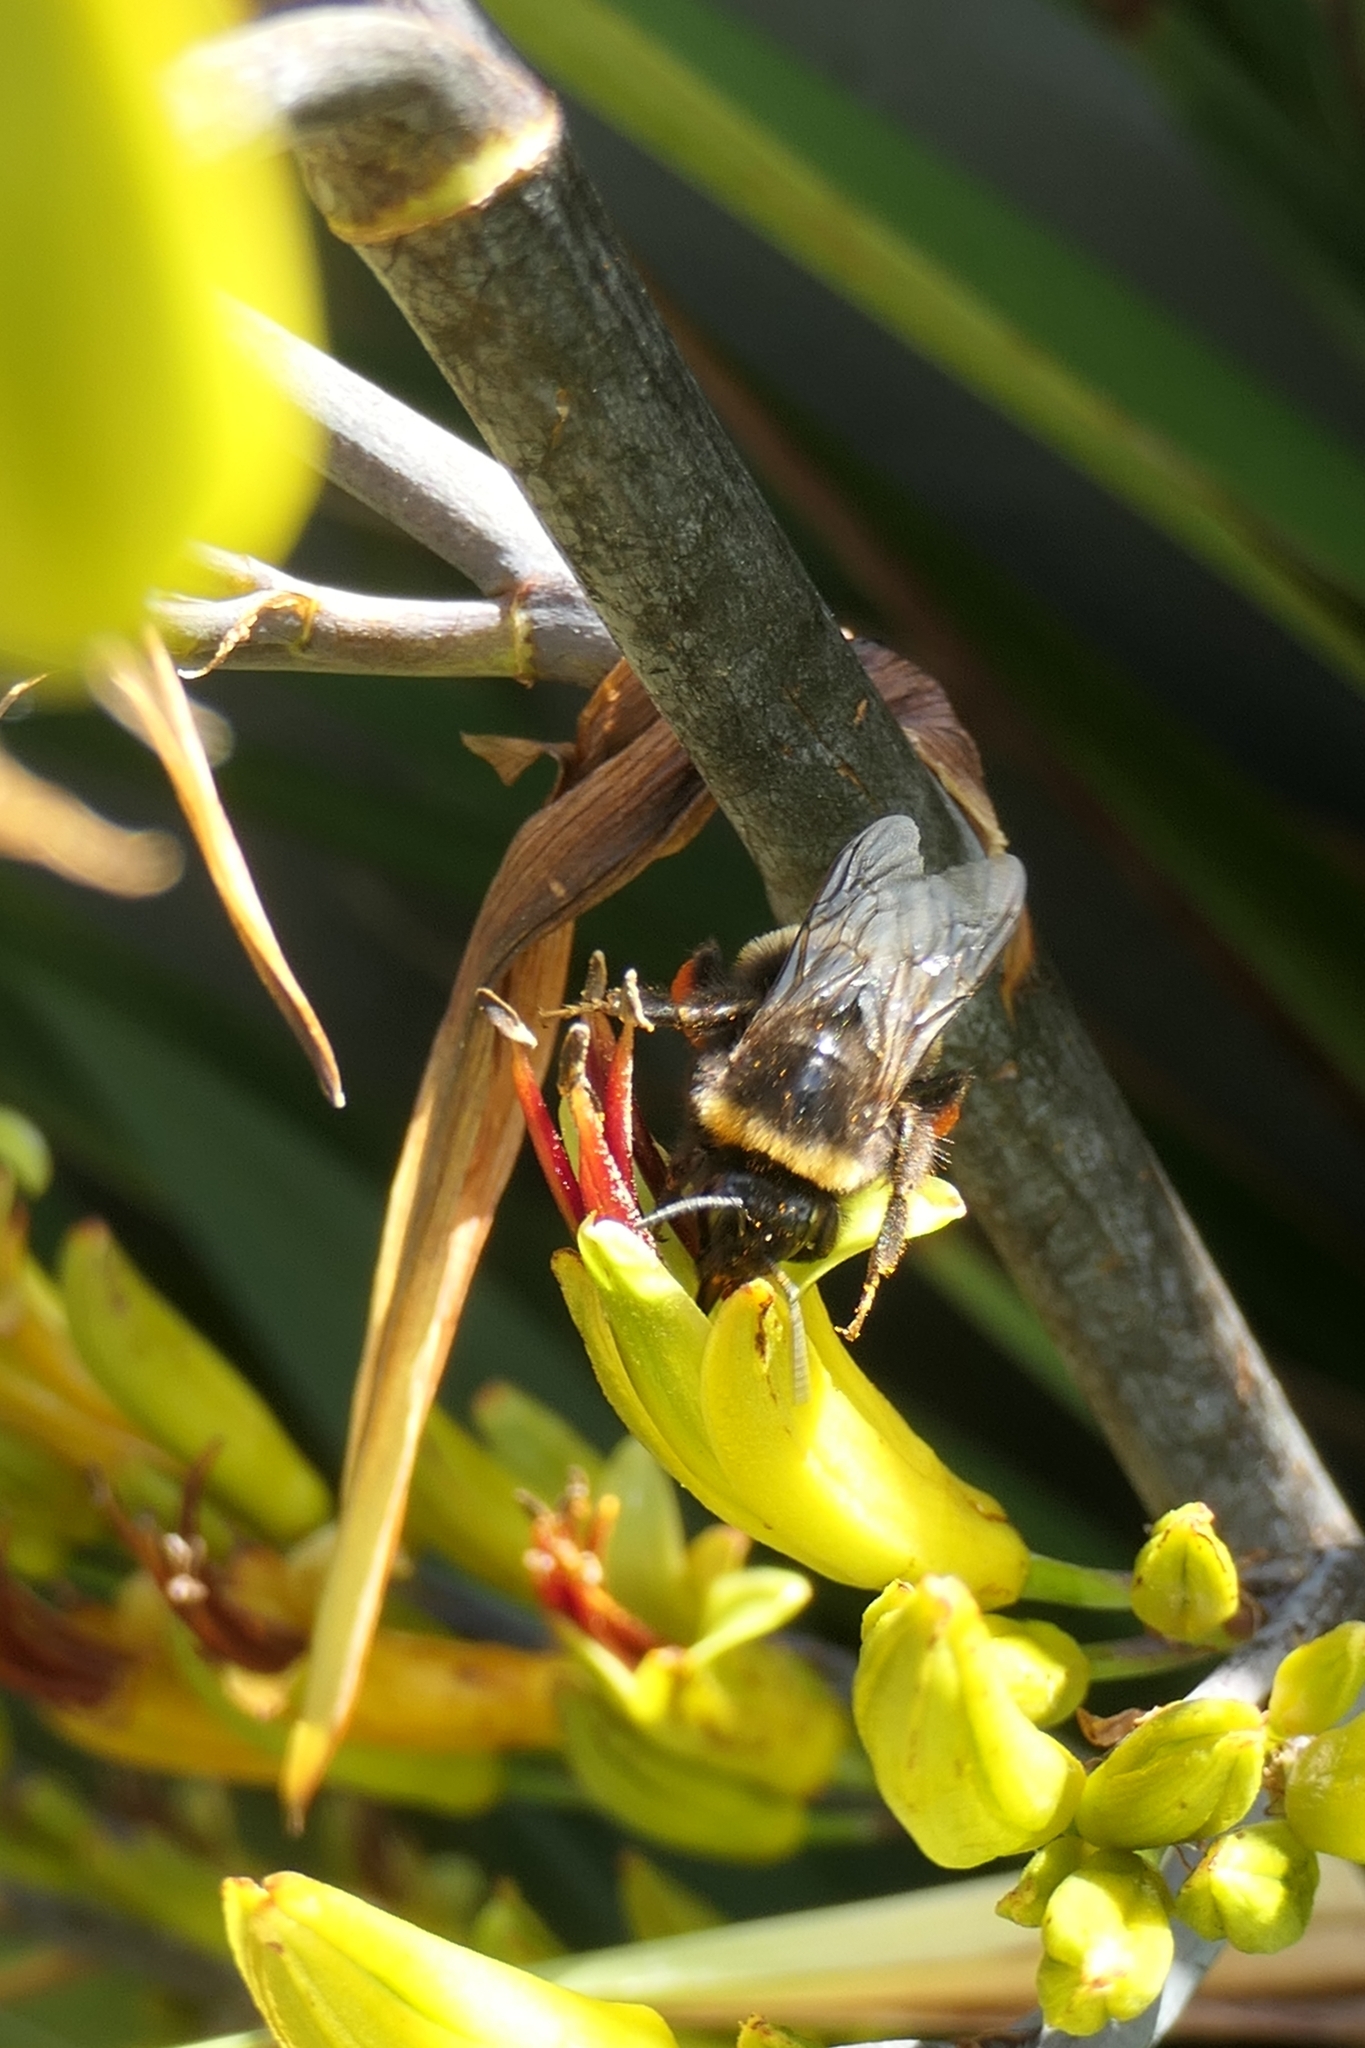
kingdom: Animalia
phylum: Arthropoda
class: Insecta
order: Hymenoptera
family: Apidae
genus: Bombus
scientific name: Bombus terrestris
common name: Buff-tailed bumblebee
